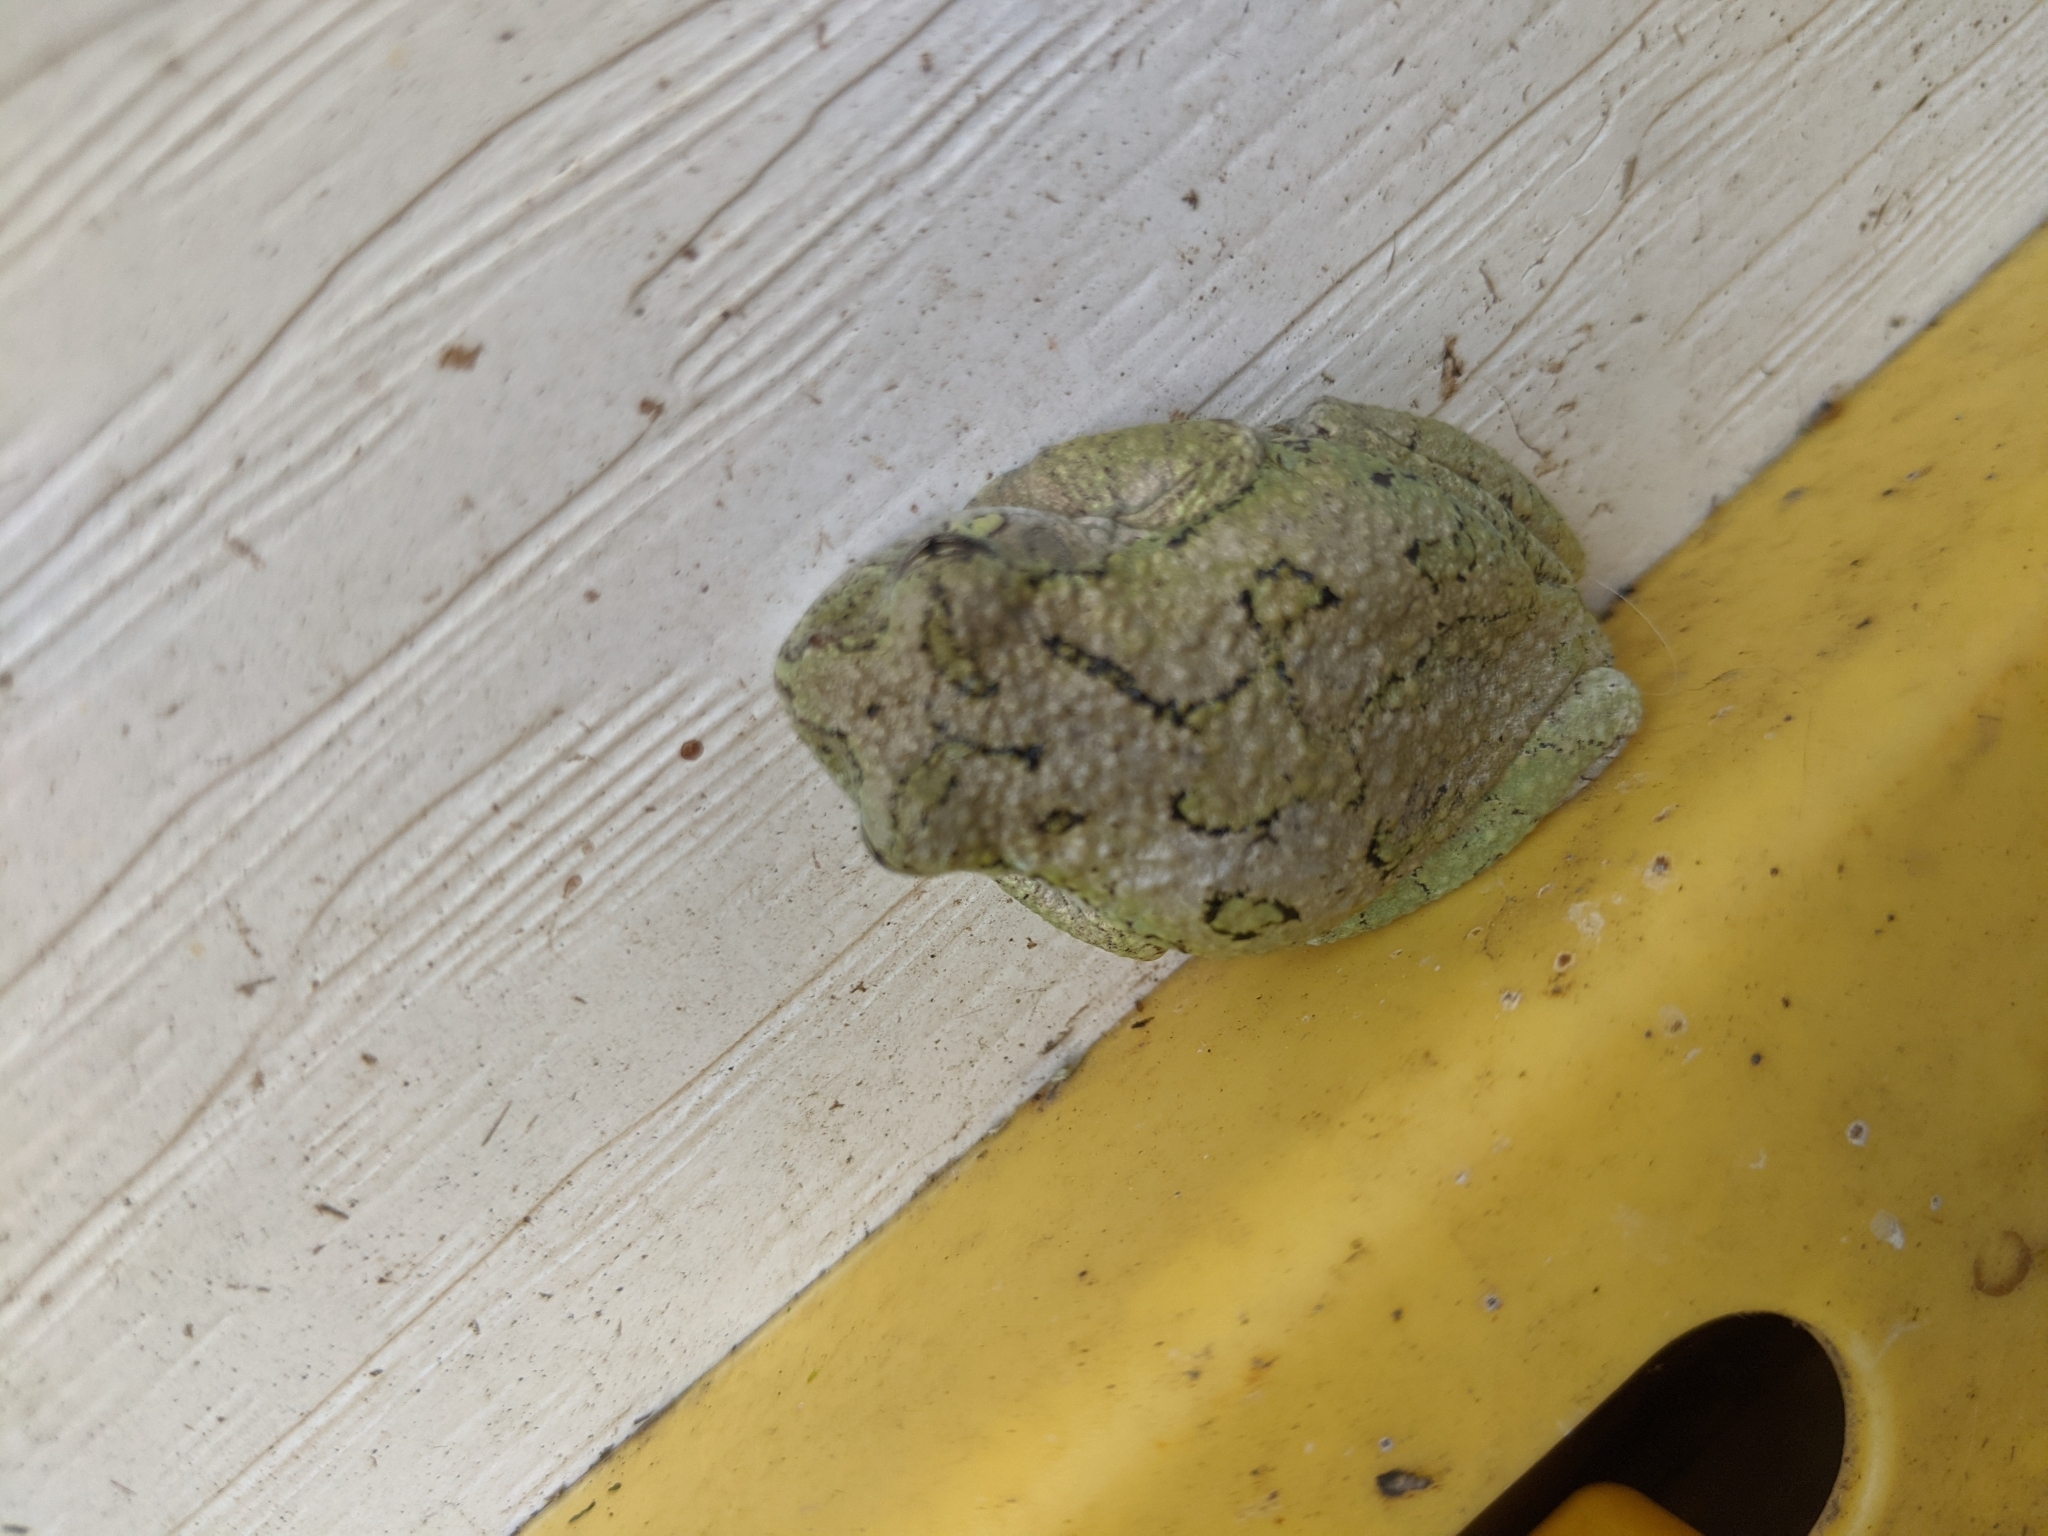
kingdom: Animalia
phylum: Chordata
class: Amphibia
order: Anura
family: Hylidae
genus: Dryophytes
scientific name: Dryophytes chrysoscelis
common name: Cope's gray treefrog
